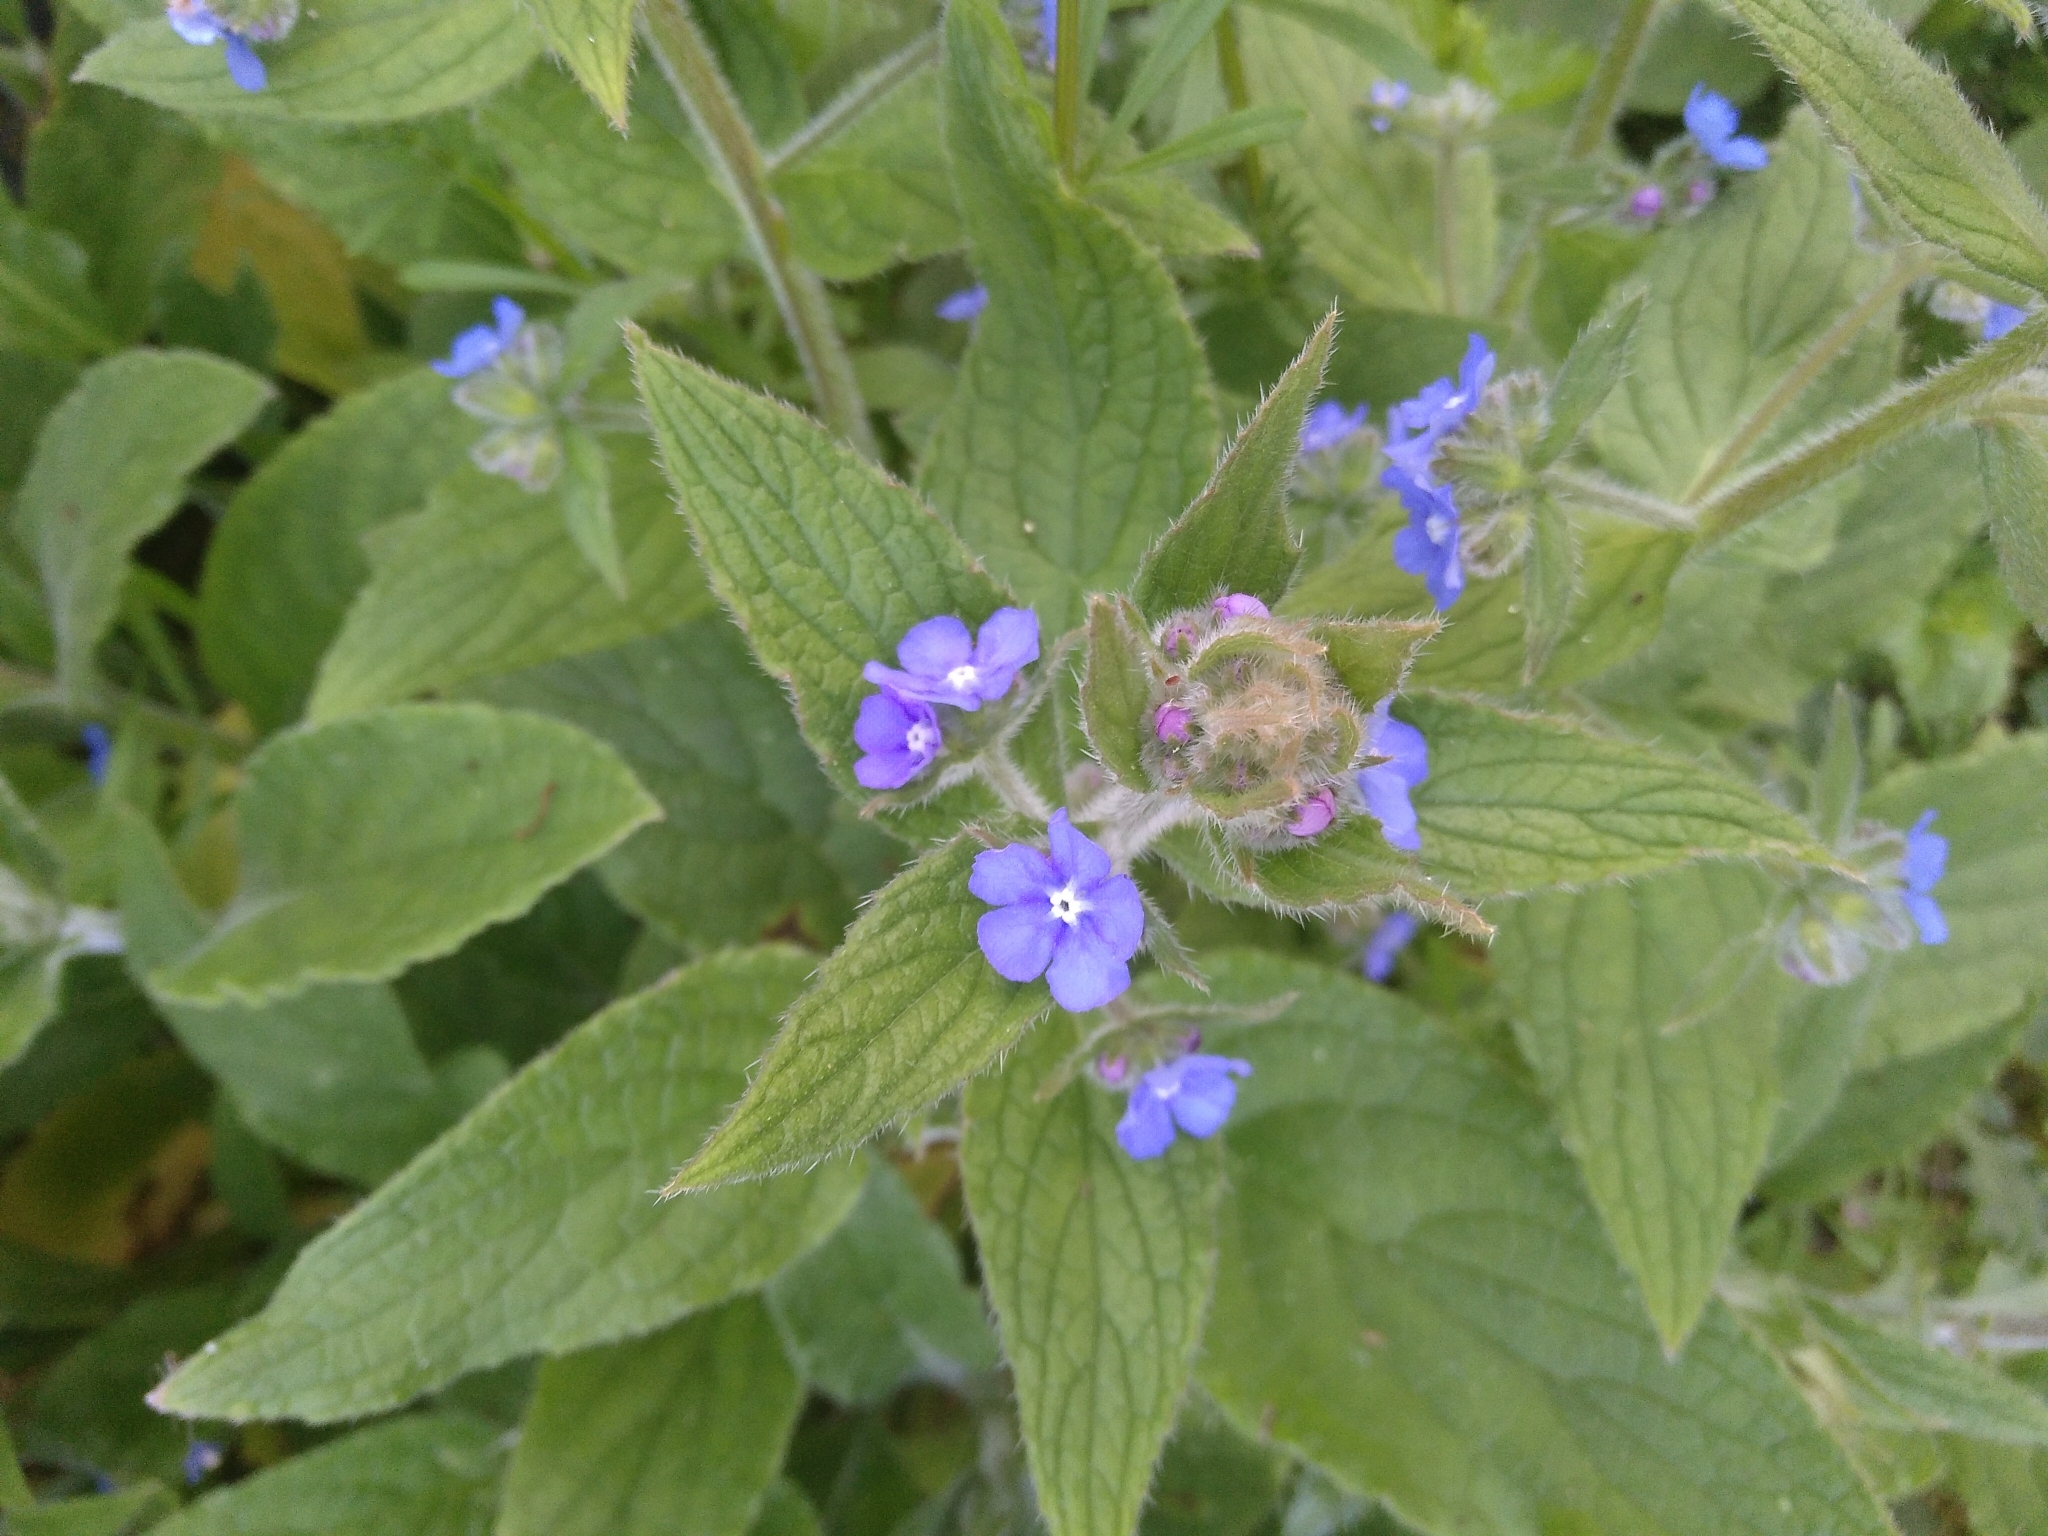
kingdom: Plantae
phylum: Tracheophyta
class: Magnoliopsida
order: Boraginales
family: Boraginaceae
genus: Pentaglottis
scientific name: Pentaglottis sempervirens
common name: Green alkanet
